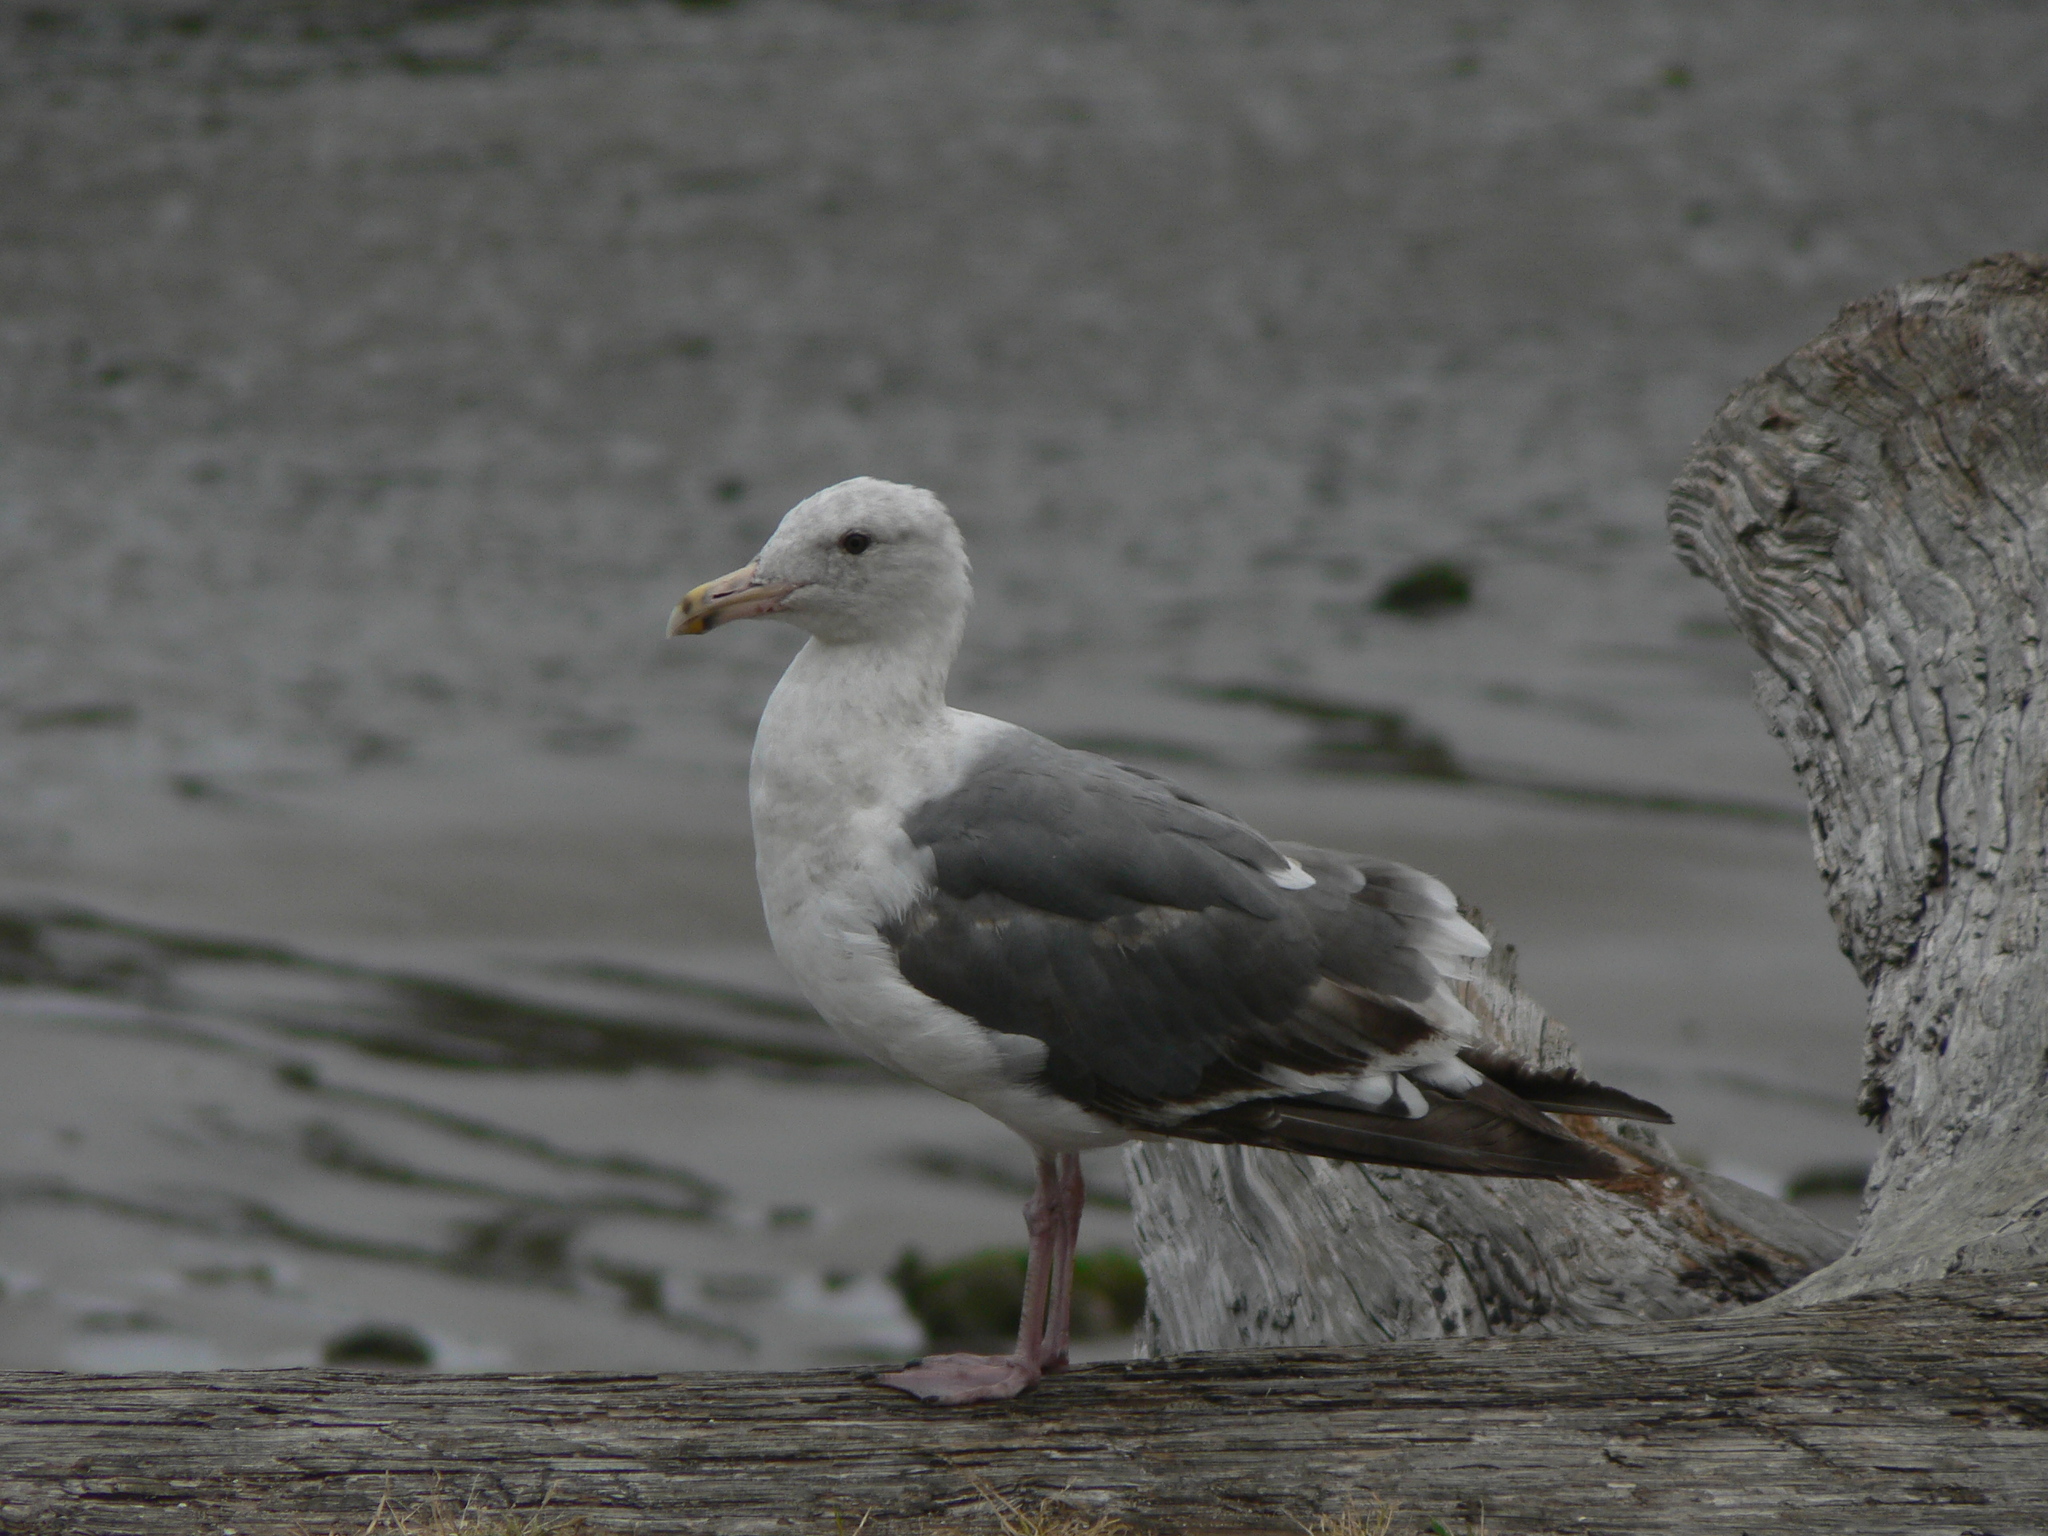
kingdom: Animalia
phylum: Chordata
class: Aves
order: Charadriiformes
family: Laridae
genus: Larus
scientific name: Larus occidentalis
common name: Western gull
